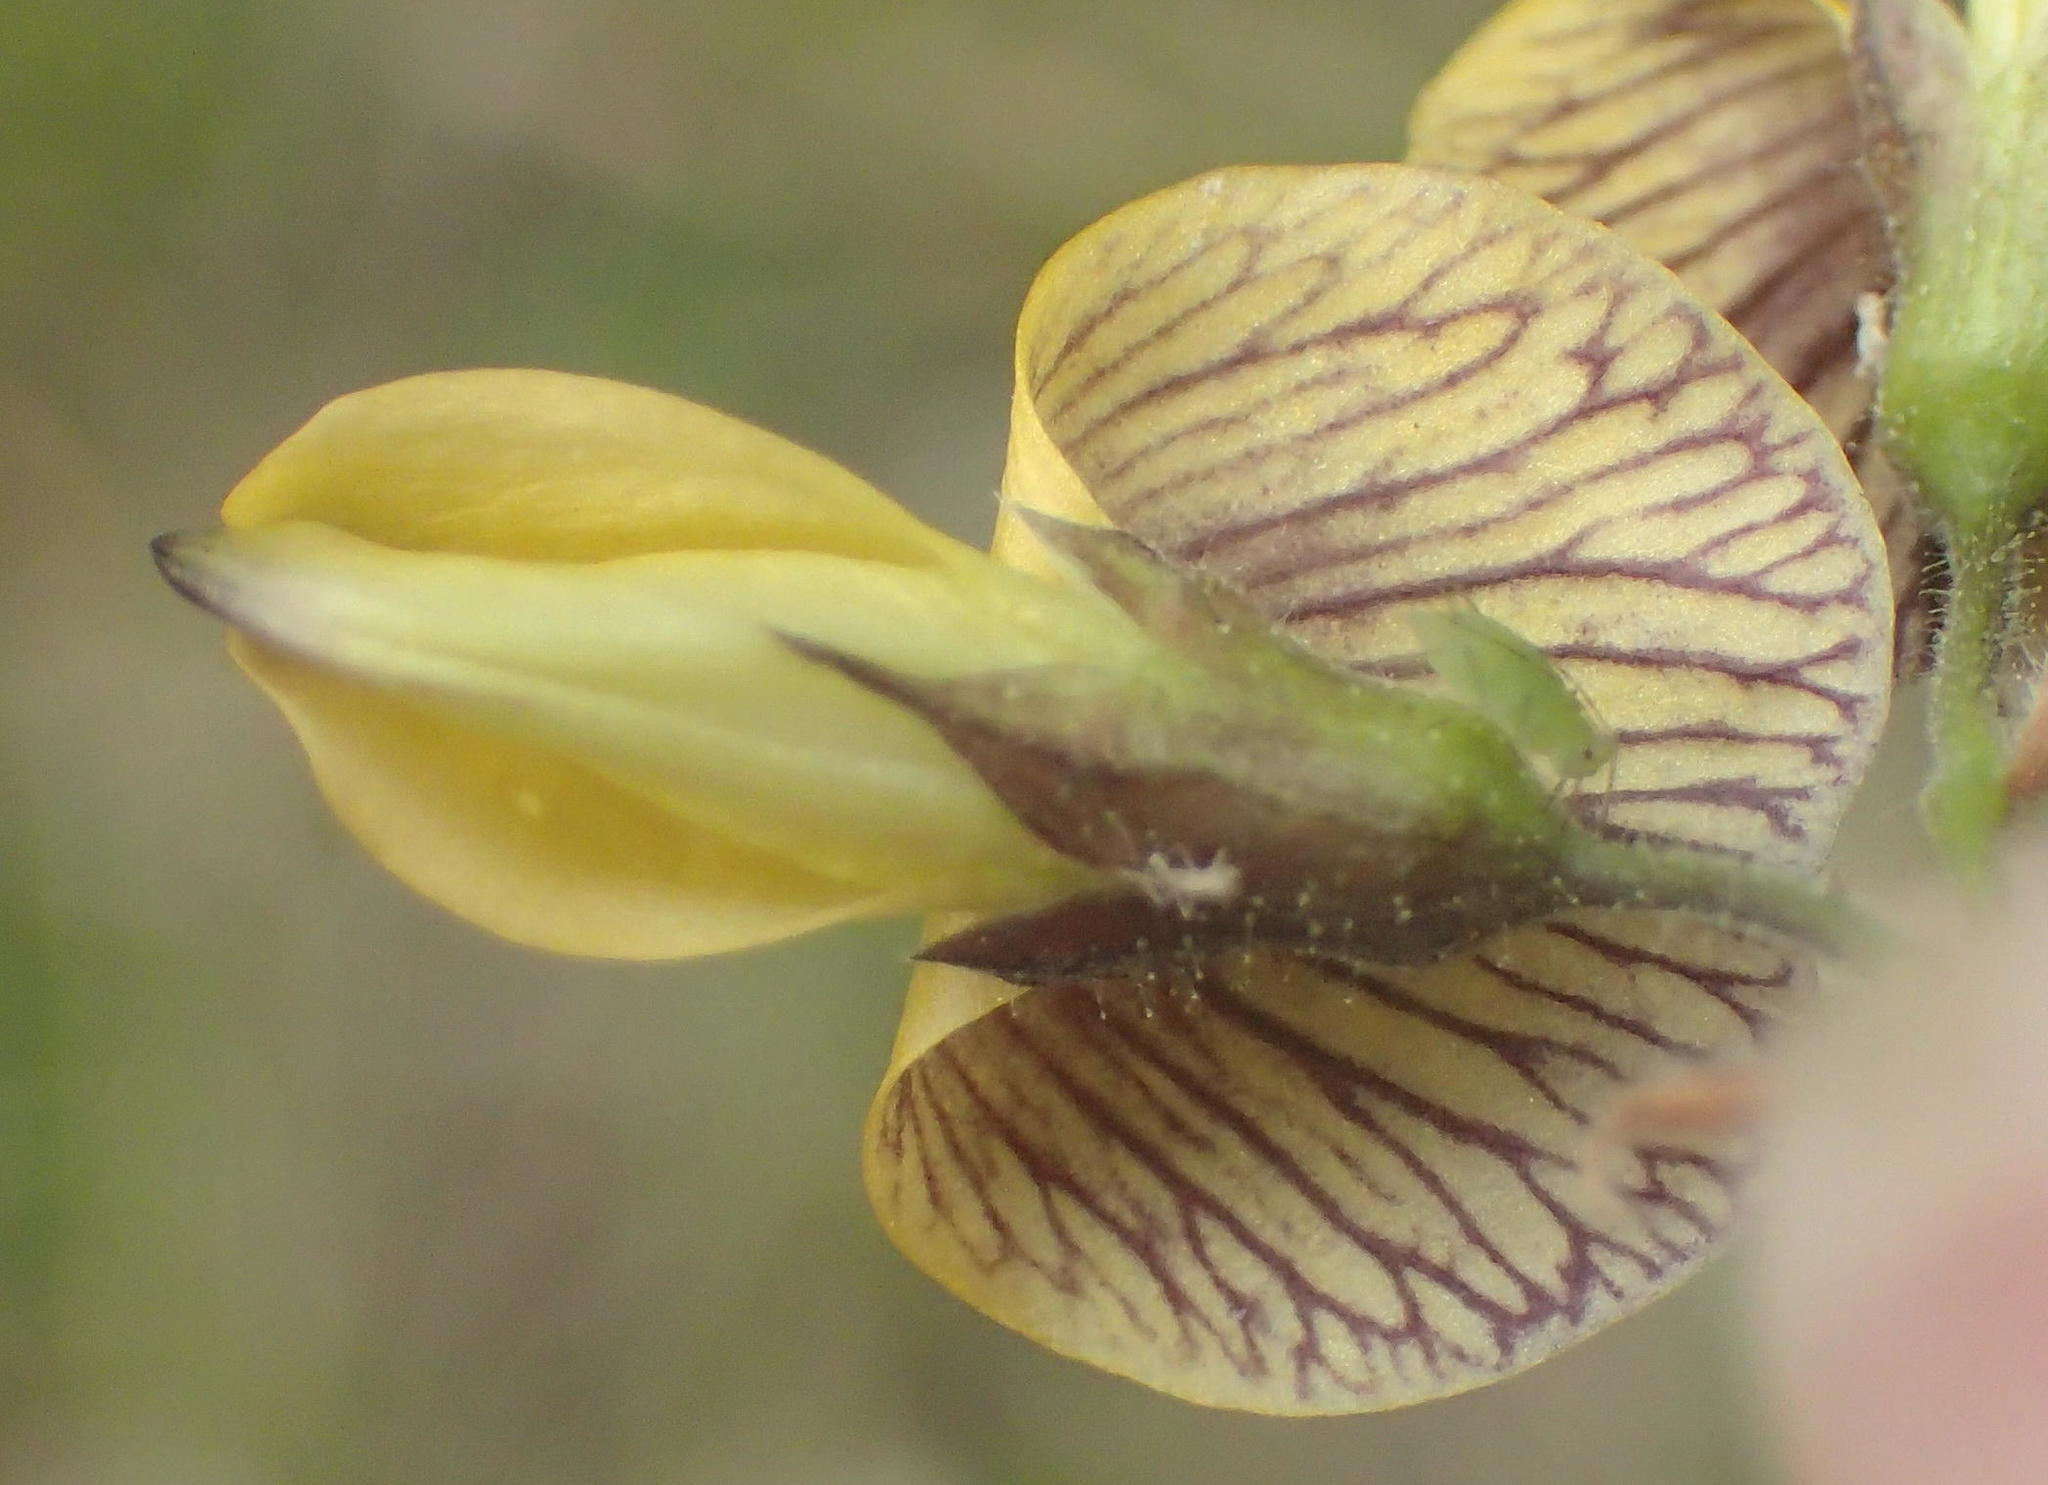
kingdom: Plantae
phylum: Tracheophyta
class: Magnoliopsida
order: Fabales
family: Fabaceae
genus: Rhynchosia
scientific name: Rhynchosia caribaea
